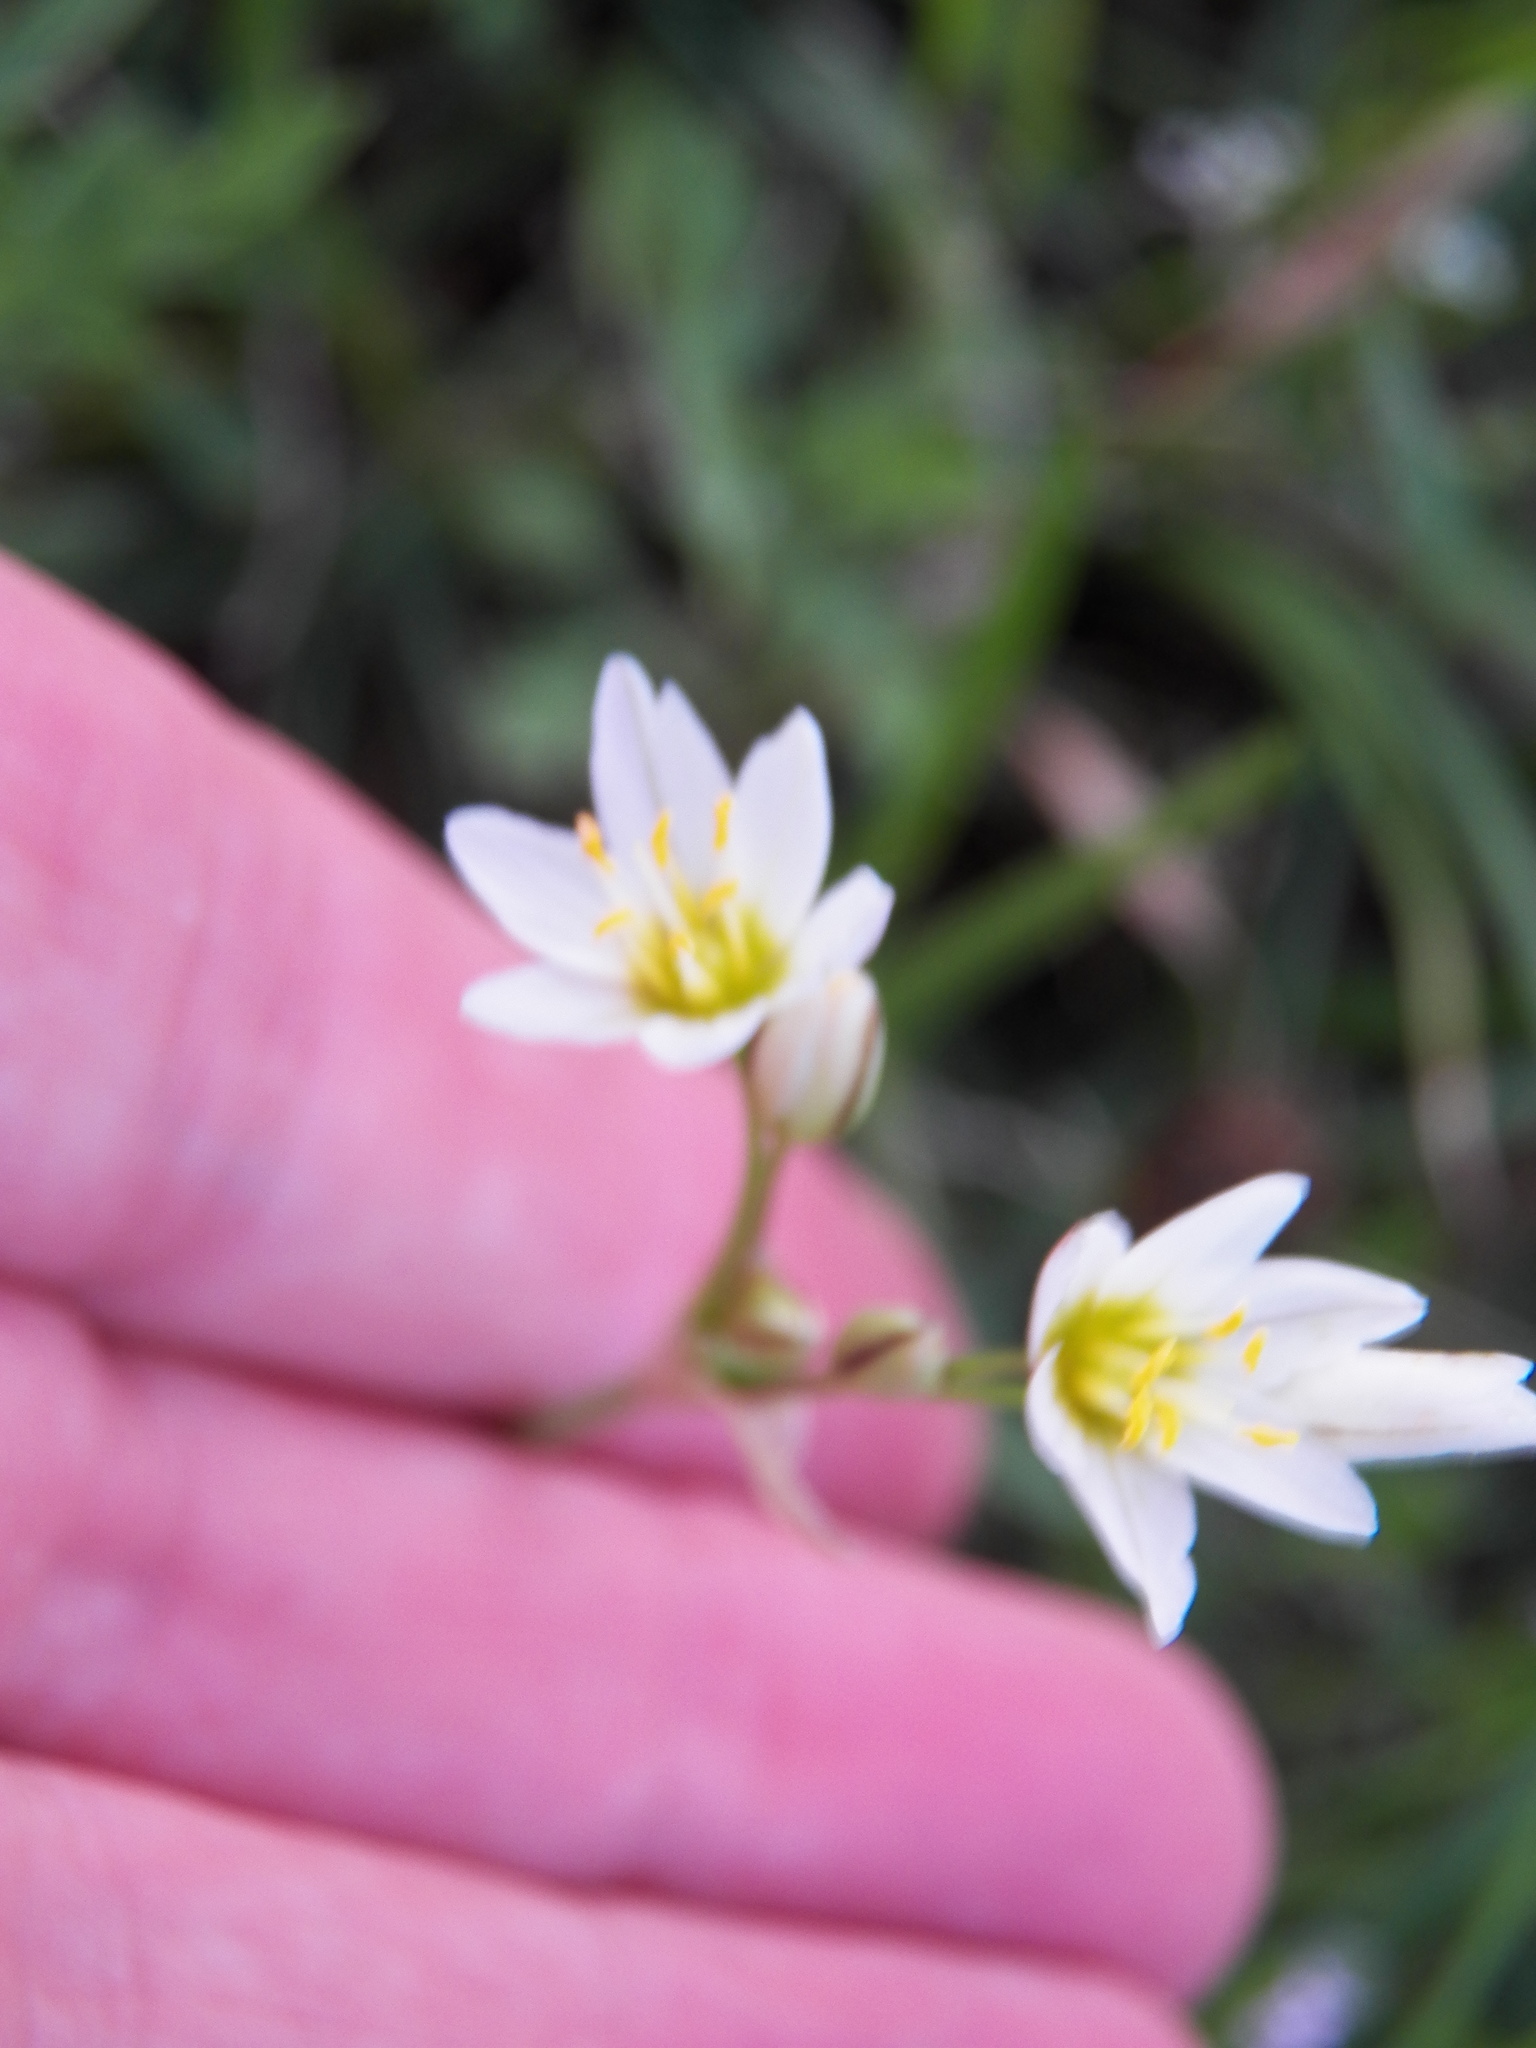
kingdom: Plantae
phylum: Tracheophyta
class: Liliopsida
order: Asparagales
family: Amaryllidaceae
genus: Nothoscordum
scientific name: Nothoscordum bivalve
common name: Crow-poison
